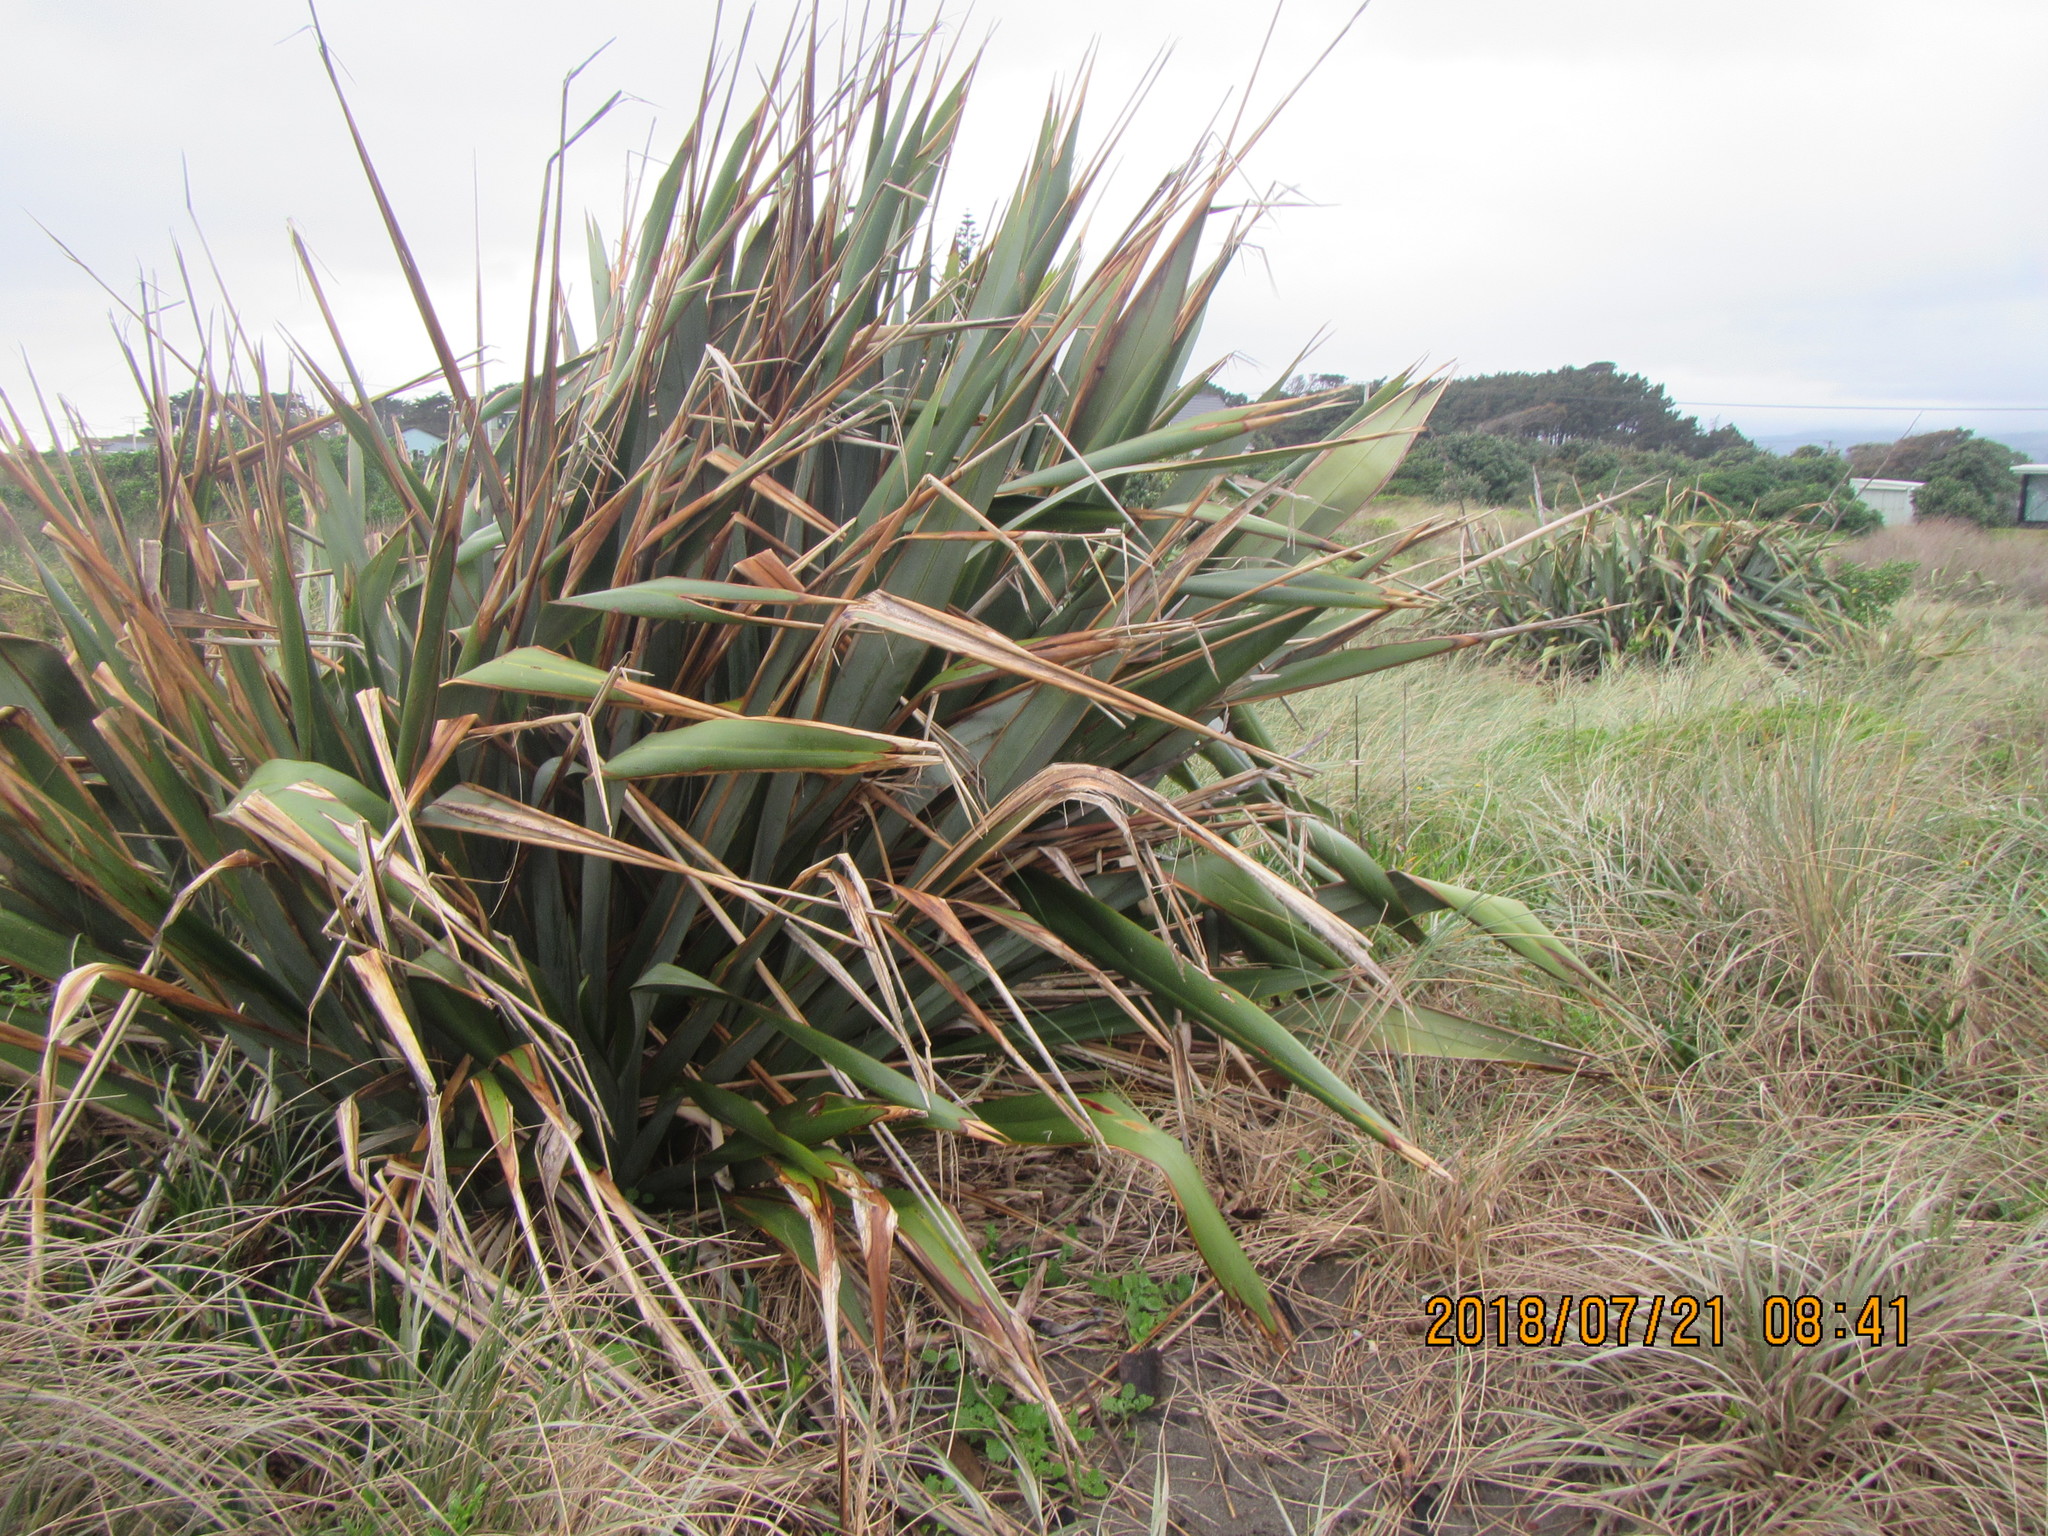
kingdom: Plantae
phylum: Tracheophyta
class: Liliopsida
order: Asparagales
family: Asphodelaceae
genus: Phormium
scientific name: Phormium tenax
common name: New zealand flax
